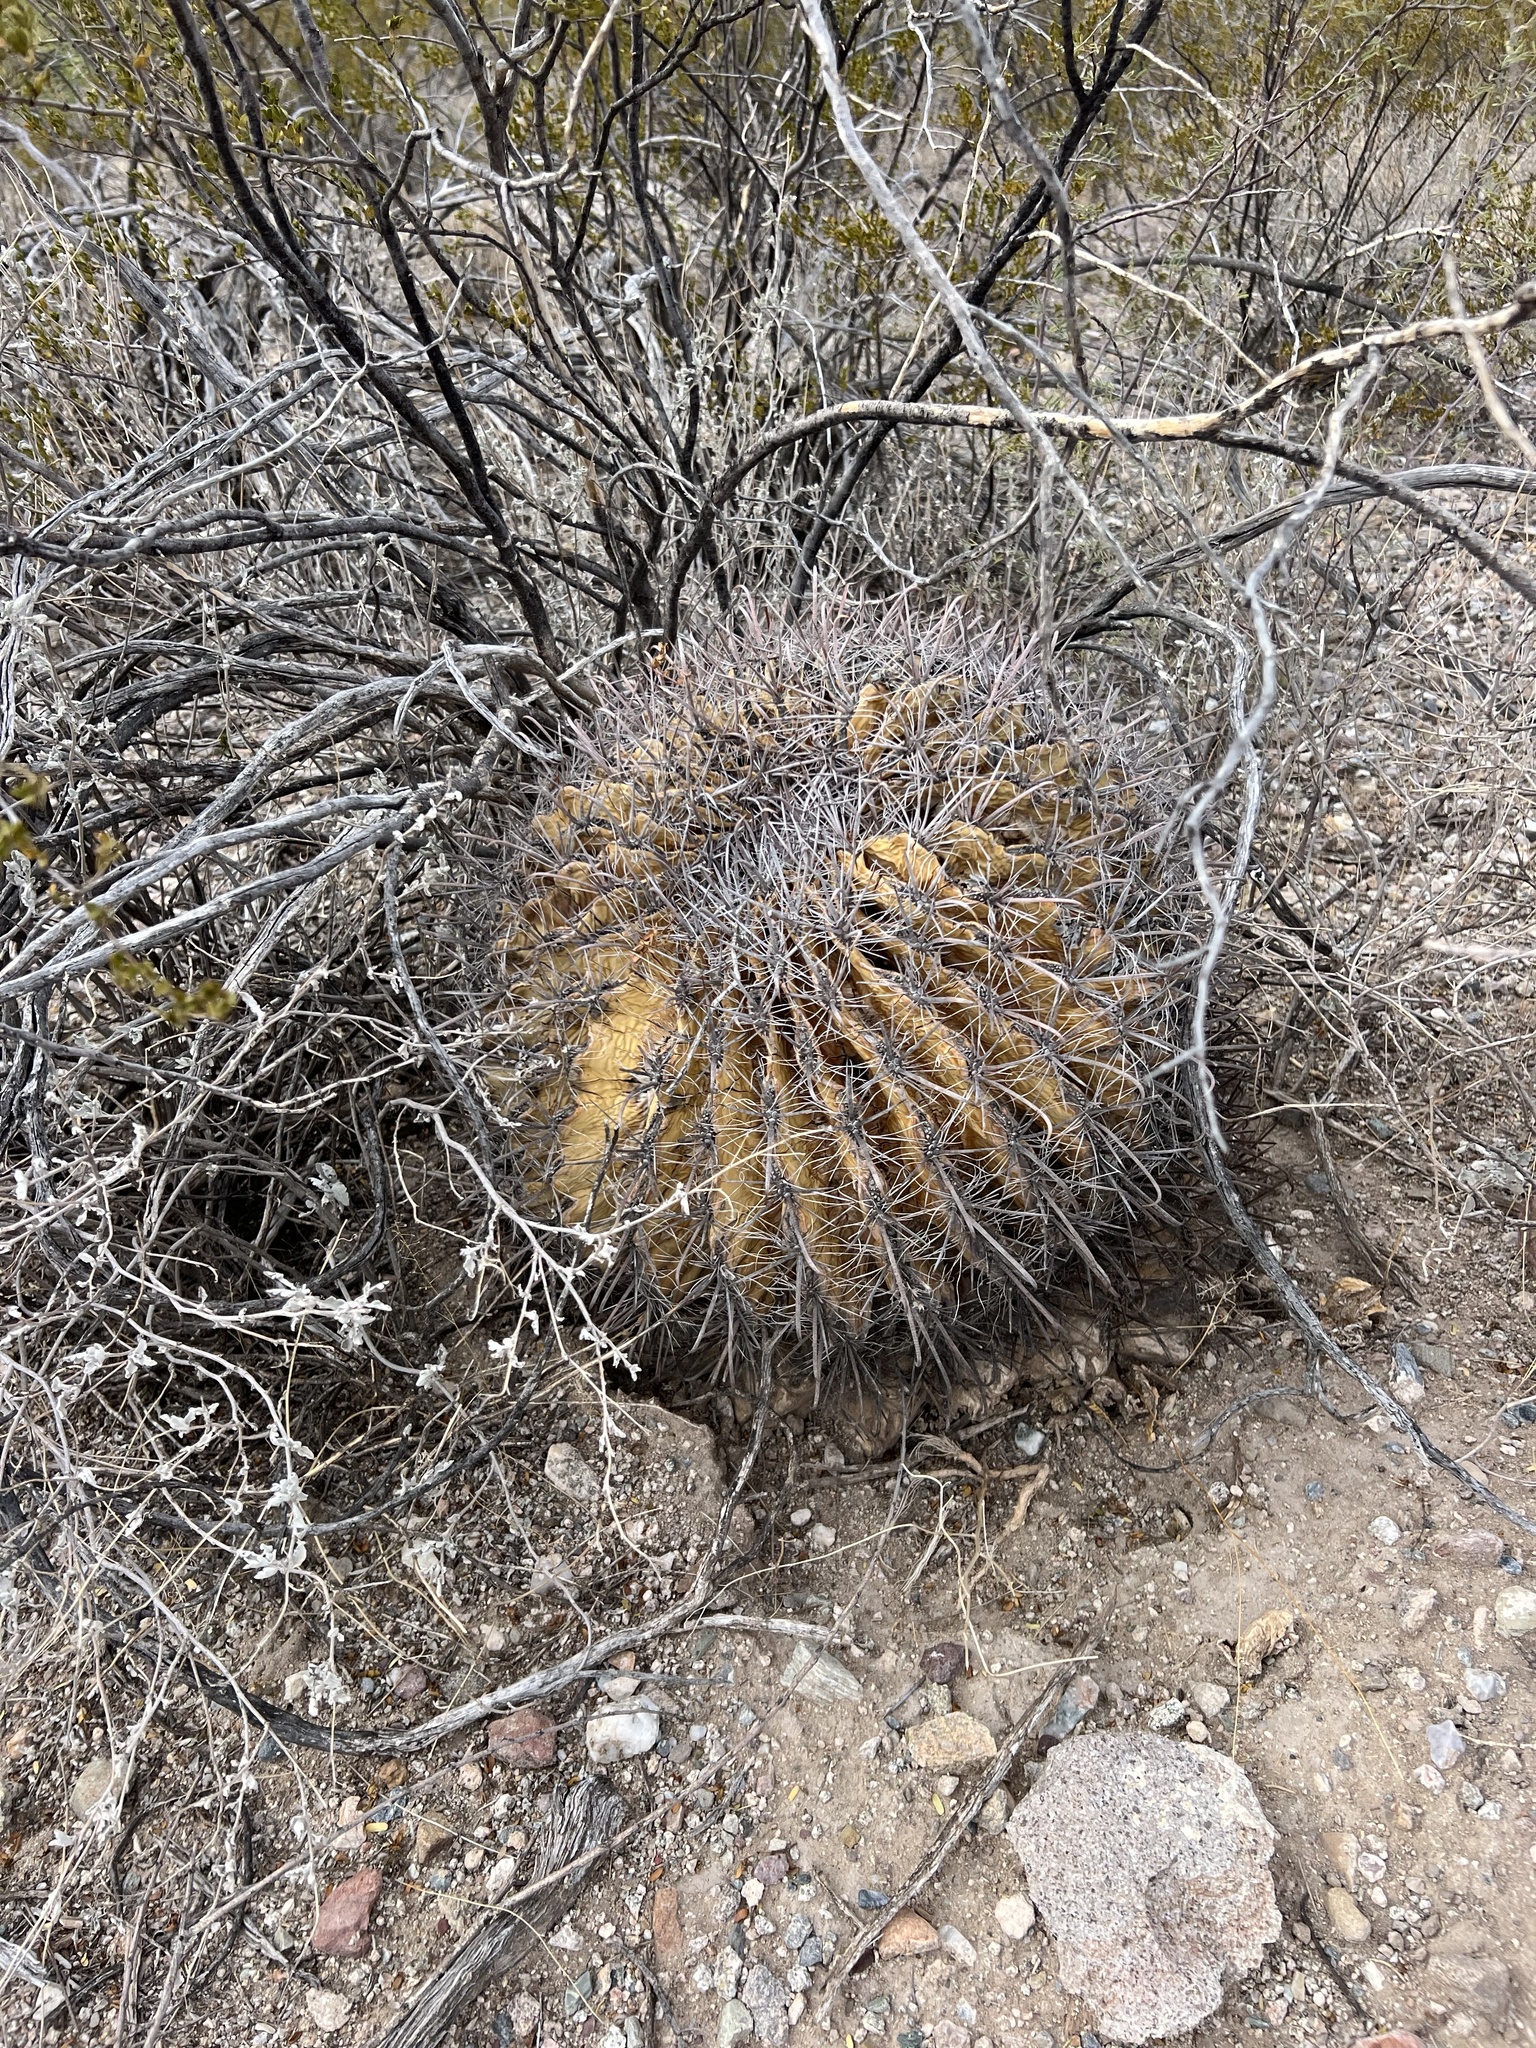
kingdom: Plantae
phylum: Tracheophyta
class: Magnoliopsida
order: Caryophyllales
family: Cactaceae
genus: Ferocactus
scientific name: Ferocactus wislizeni
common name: Candy barrel cactus
